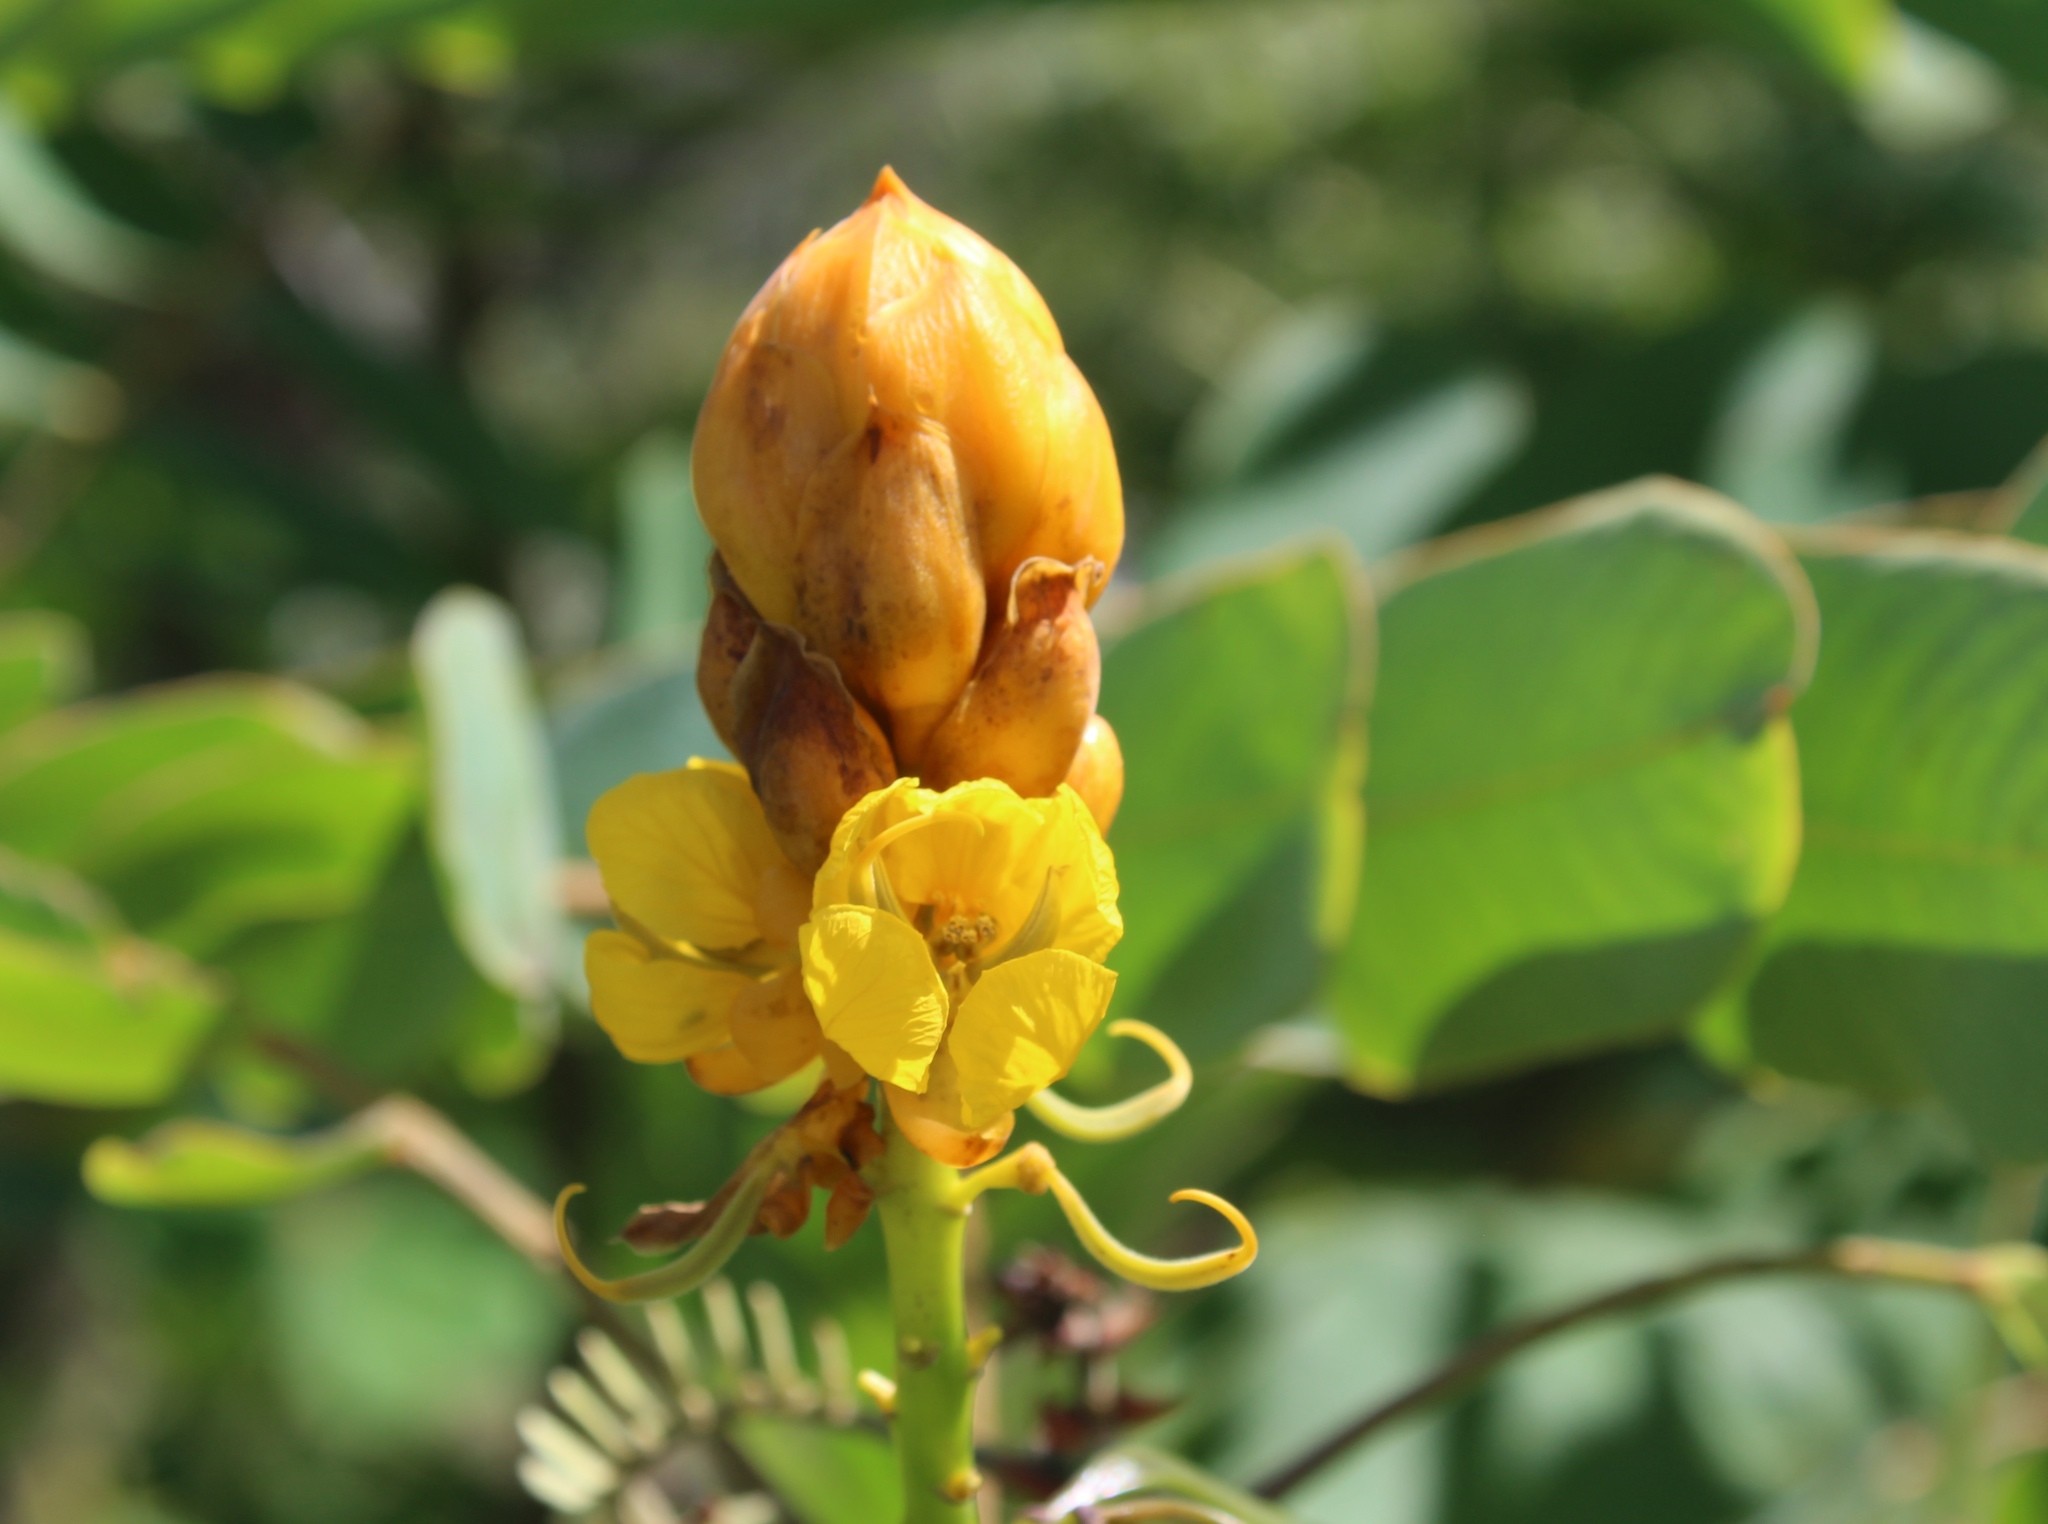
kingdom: Plantae
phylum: Tracheophyta
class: Magnoliopsida
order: Fabales
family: Fabaceae
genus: Senna
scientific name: Senna reticulata
